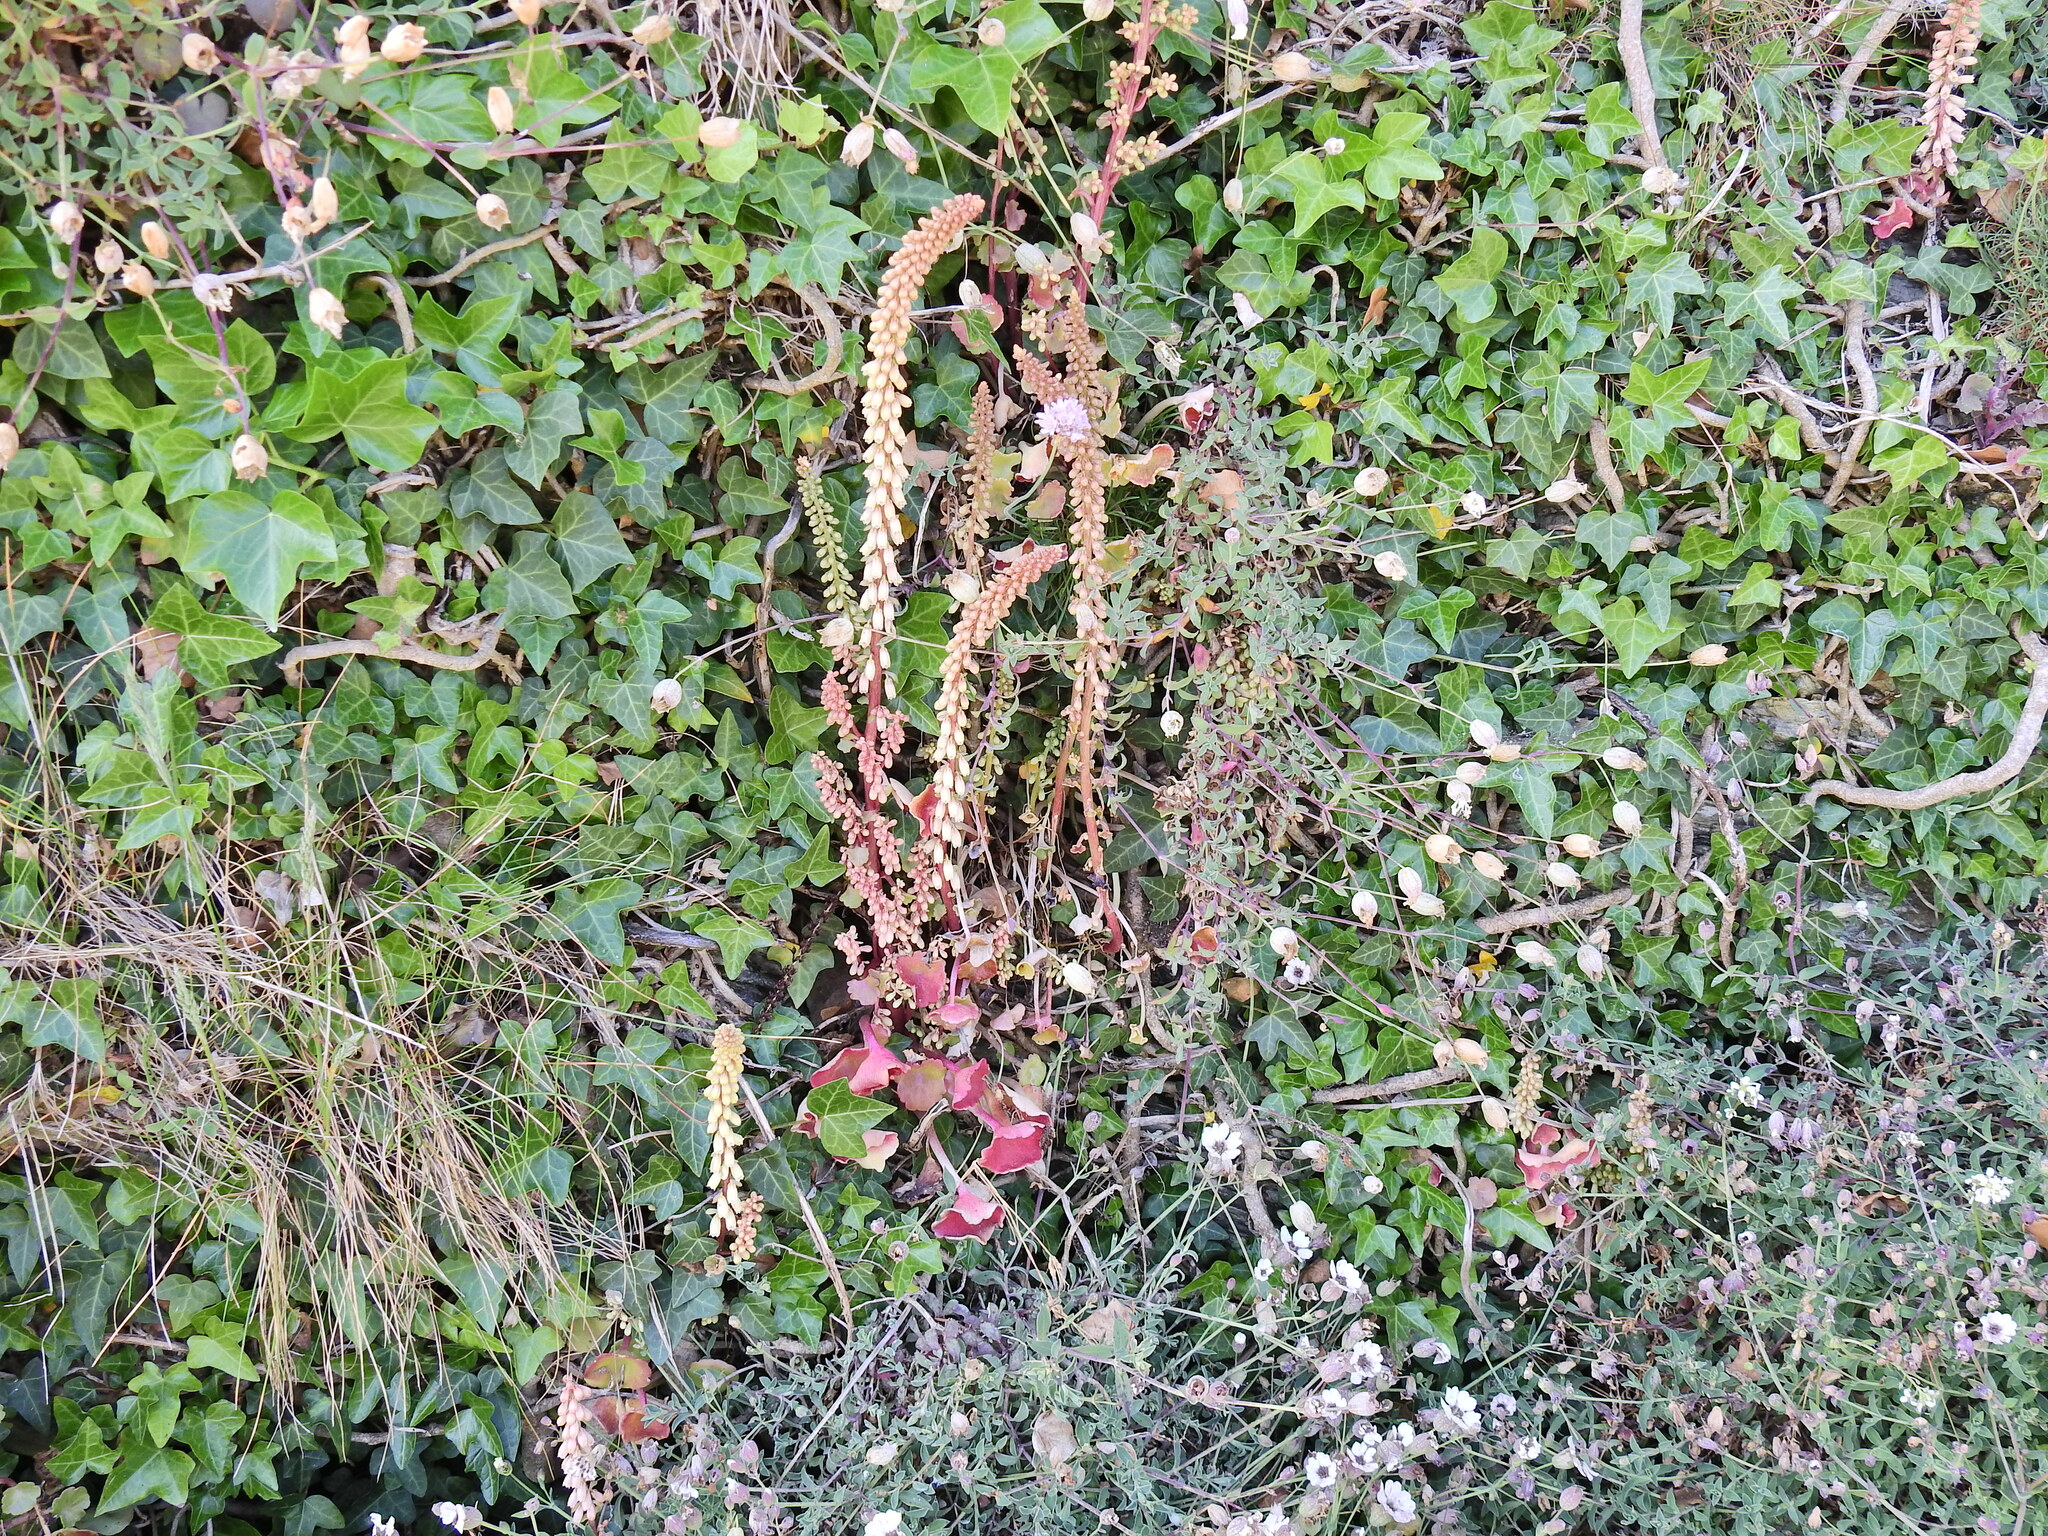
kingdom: Plantae
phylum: Tracheophyta
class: Magnoliopsida
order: Saxifragales
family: Crassulaceae
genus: Umbilicus
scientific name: Umbilicus rupestris
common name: Navelwort
